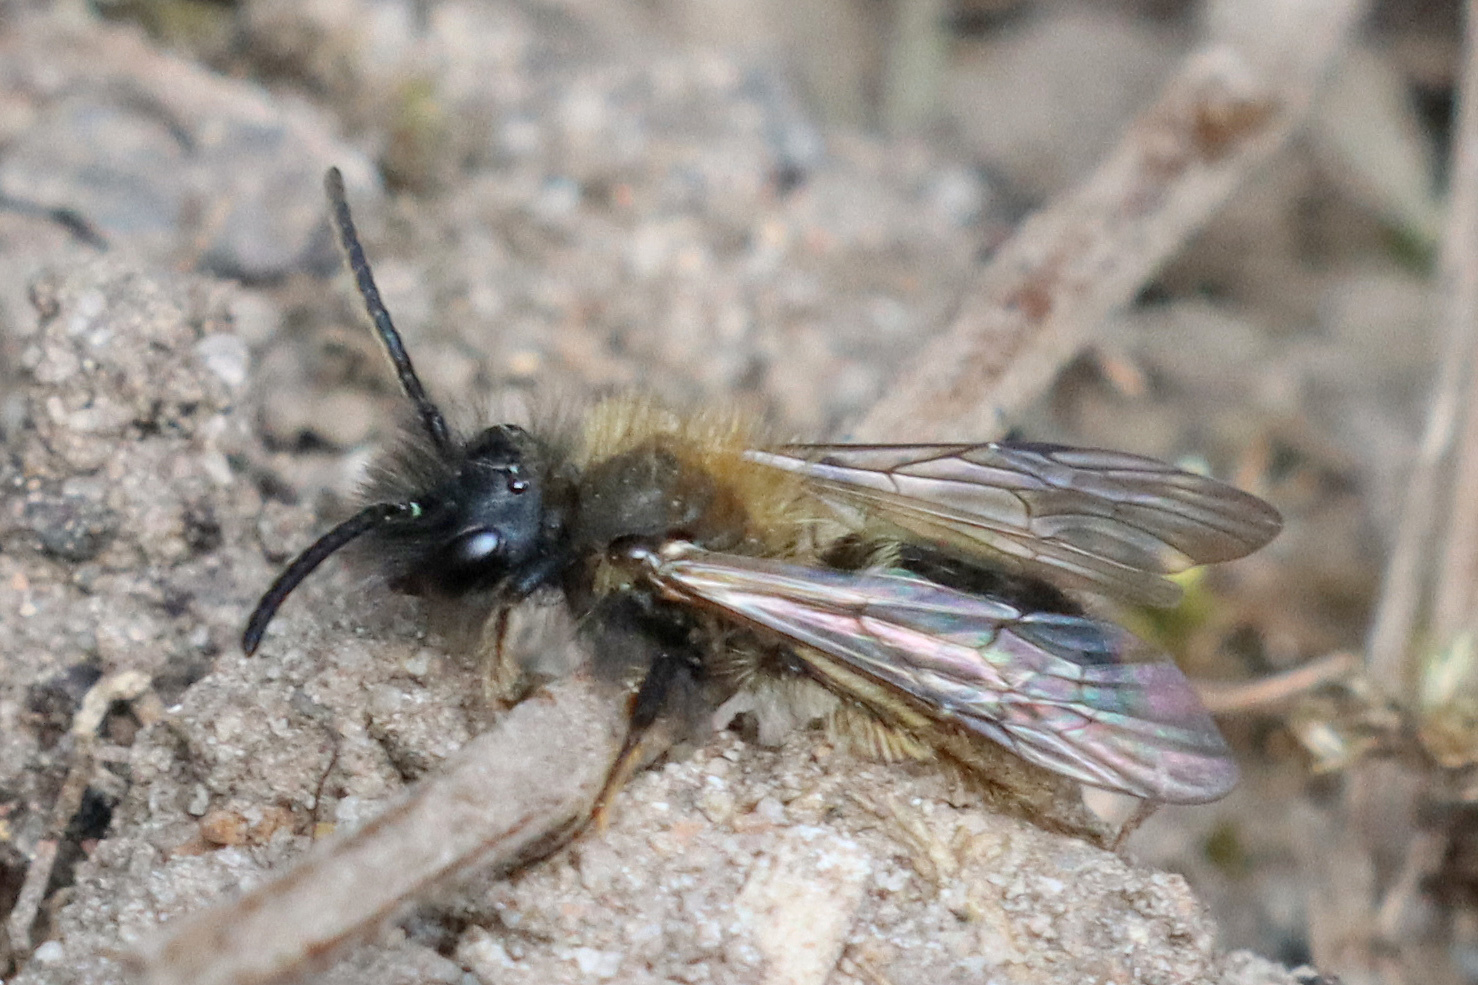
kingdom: Animalia
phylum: Arthropoda
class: Insecta
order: Hymenoptera
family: Andrenidae
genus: Andrena
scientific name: Andrena bicolor
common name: Gwynne's mining bee
